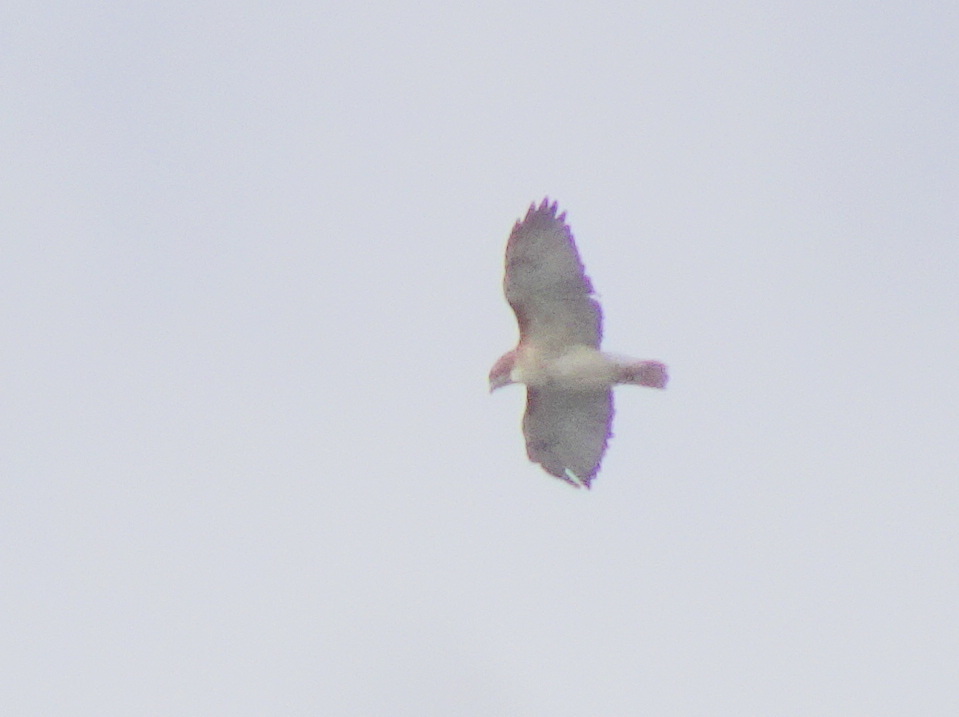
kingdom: Animalia
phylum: Chordata
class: Aves
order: Accipitriformes
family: Accipitridae
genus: Buteo
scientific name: Buteo jamaicensis
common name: Red-tailed hawk
